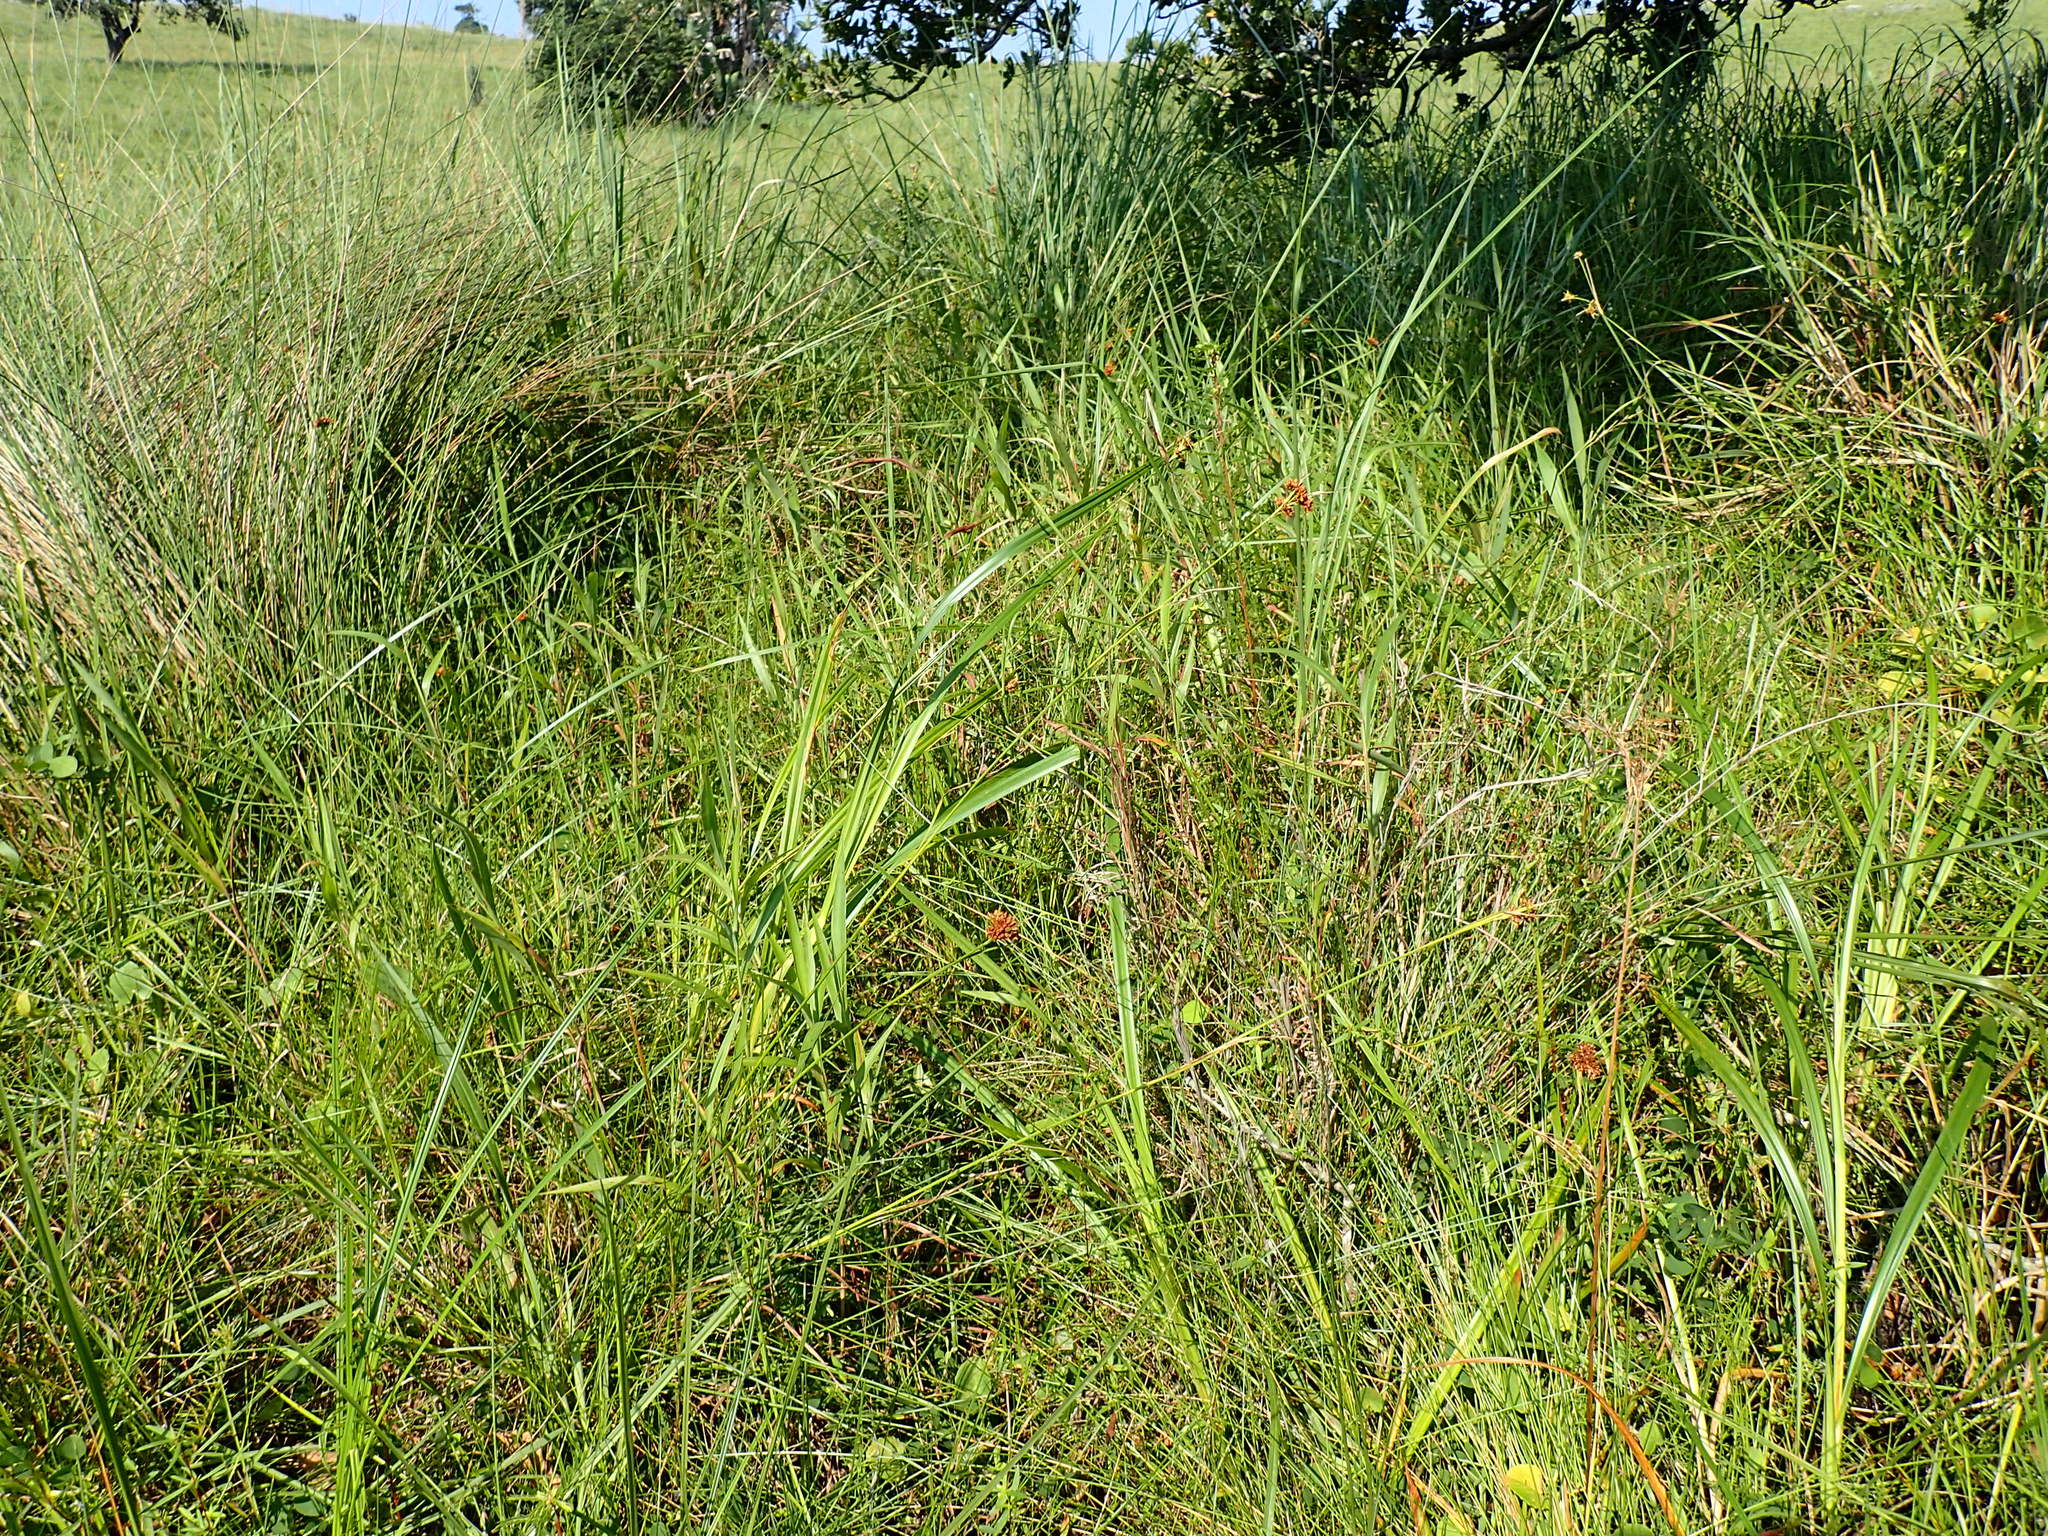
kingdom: Plantae
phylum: Tracheophyta
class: Liliopsida
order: Poales
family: Cyperaceae
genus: Rhynchospora
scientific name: Rhynchospora barrosiana
